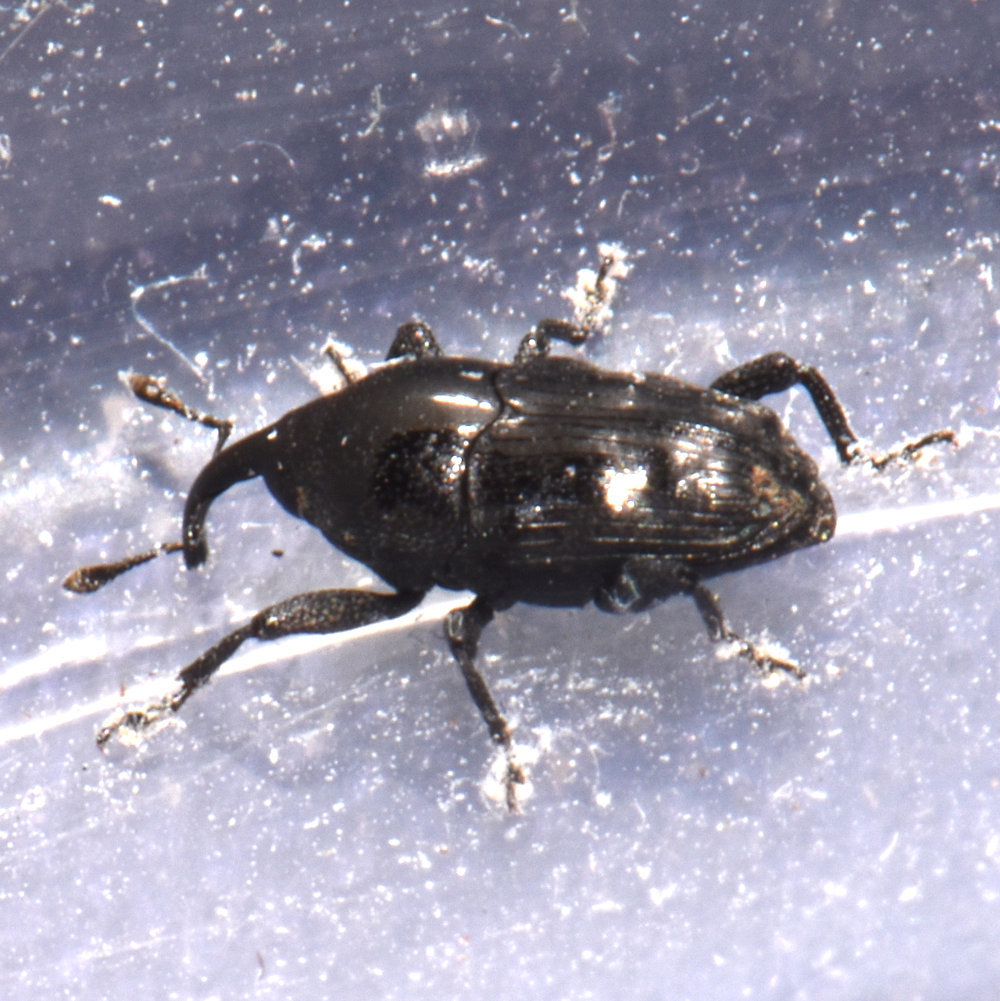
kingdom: Animalia
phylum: Arthropoda
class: Insecta
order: Coleoptera
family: Curculionidae
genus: Madarellus
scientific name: Madarellus undulatus
